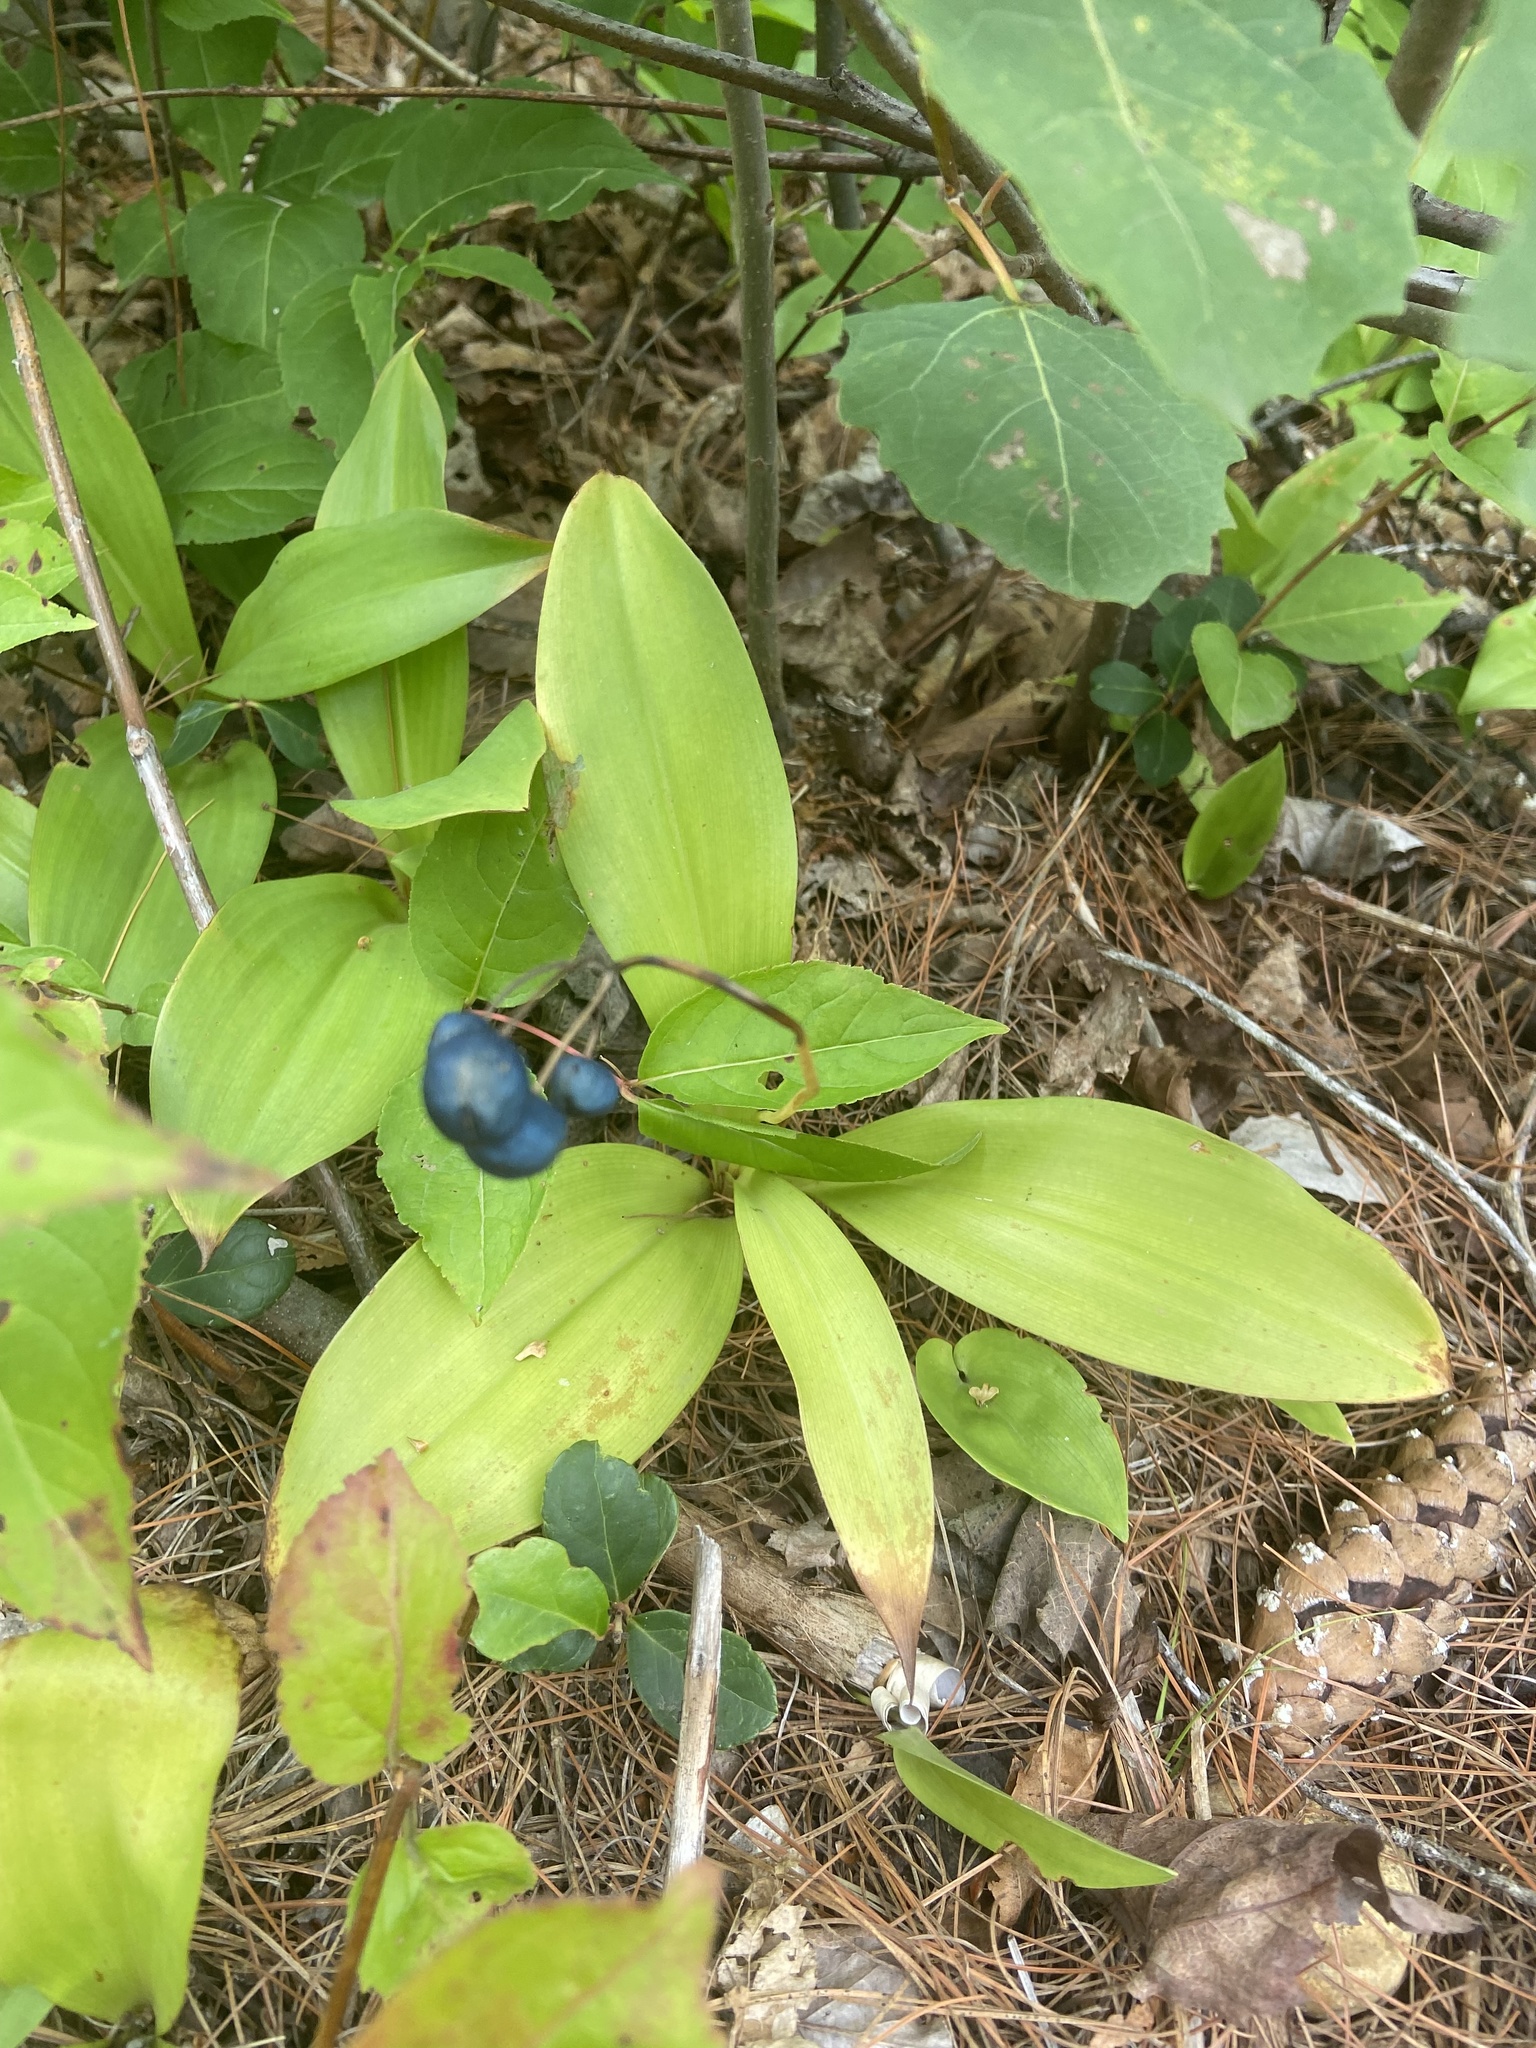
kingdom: Plantae
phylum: Tracheophyta
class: Liliopsida
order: Liliales
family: Liliaceae
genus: Clintonia
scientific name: Clintonia borealis
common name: Yellow clintonia
